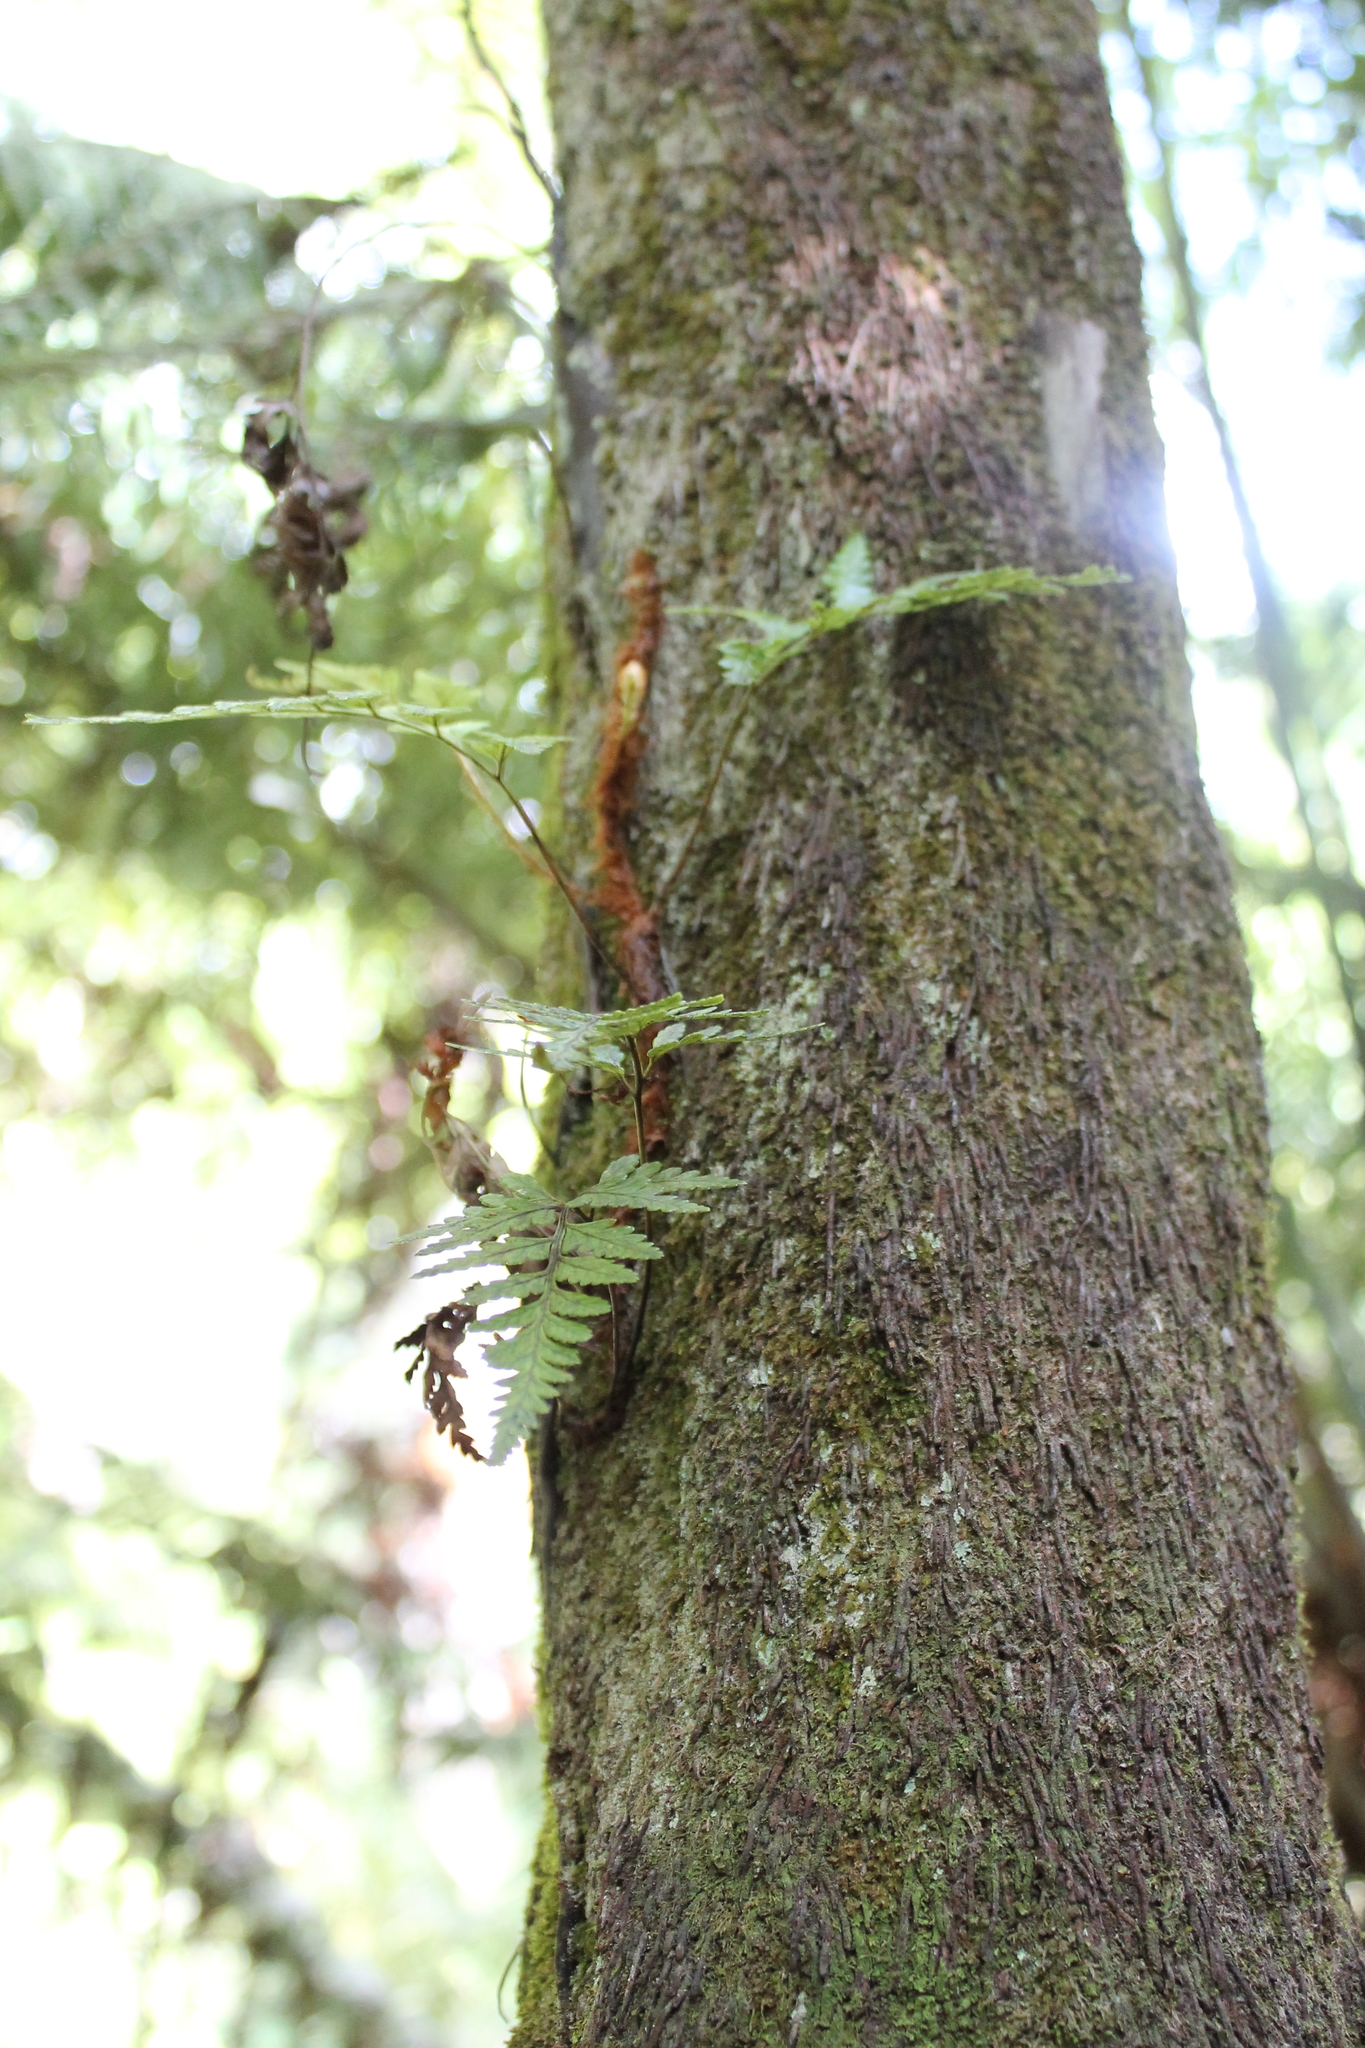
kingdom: Plantae
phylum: Tracheophyta
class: Polypodiopsida
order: Polypodiales
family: Dryopteridaceae
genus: Rumohra
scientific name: Rumohra adiantiformis
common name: Leather fern
